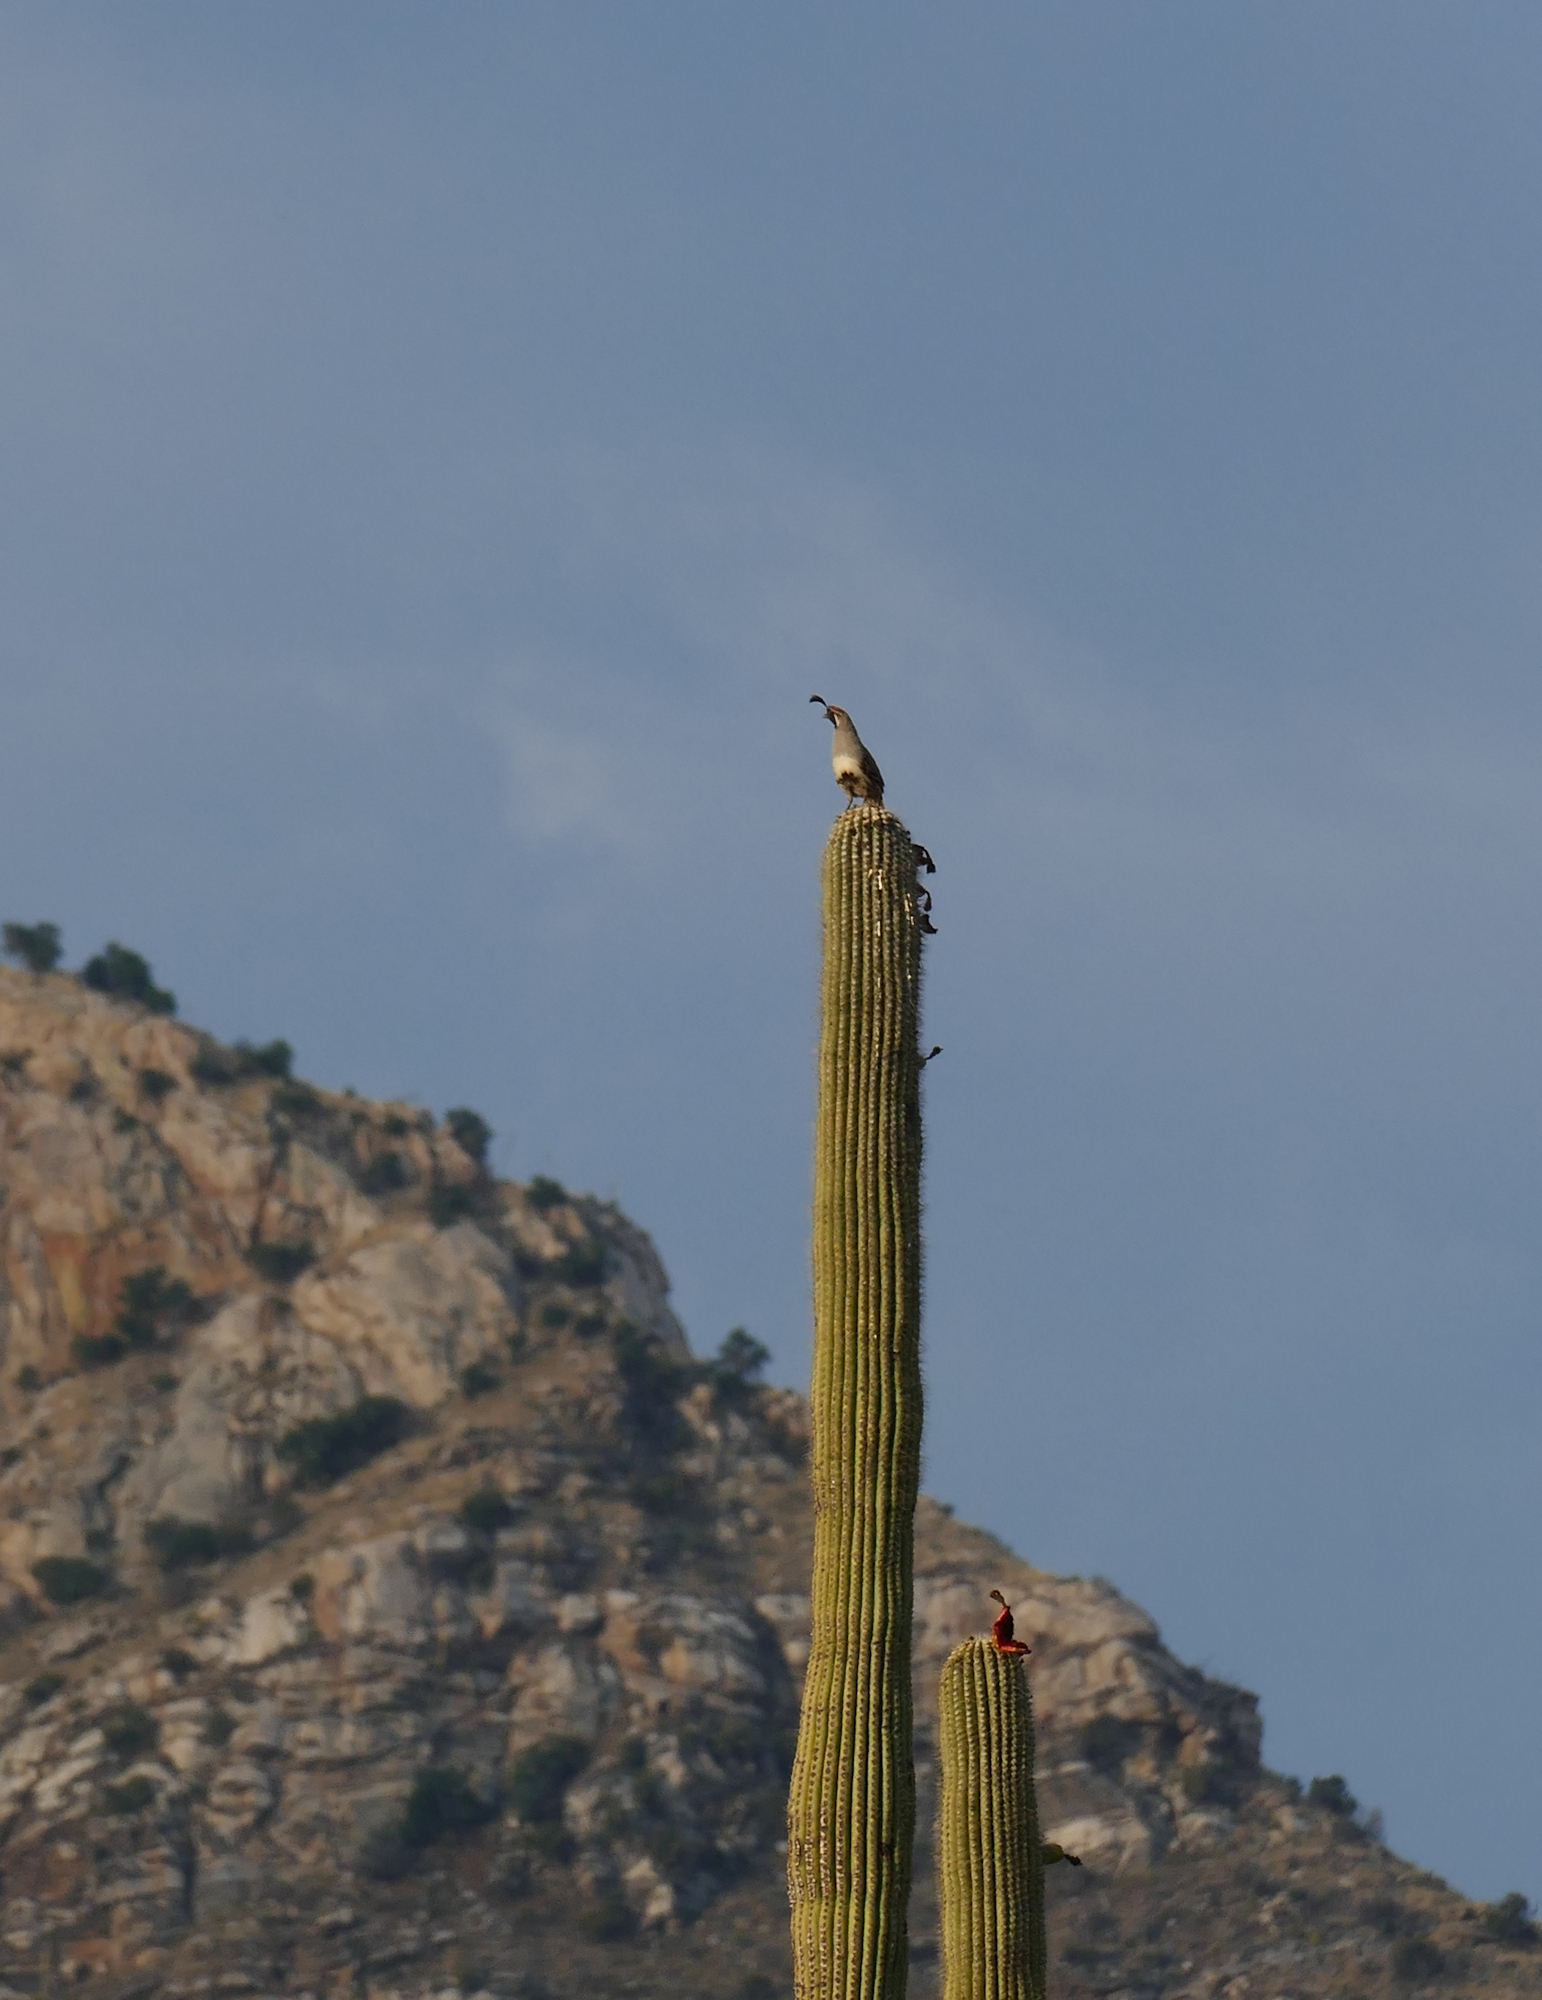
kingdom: Animalia
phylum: Chordata
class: Aves
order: Galliformes
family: Odontophoridae
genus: Callipepla
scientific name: Callipepla gambelii
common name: Gambel's quail
